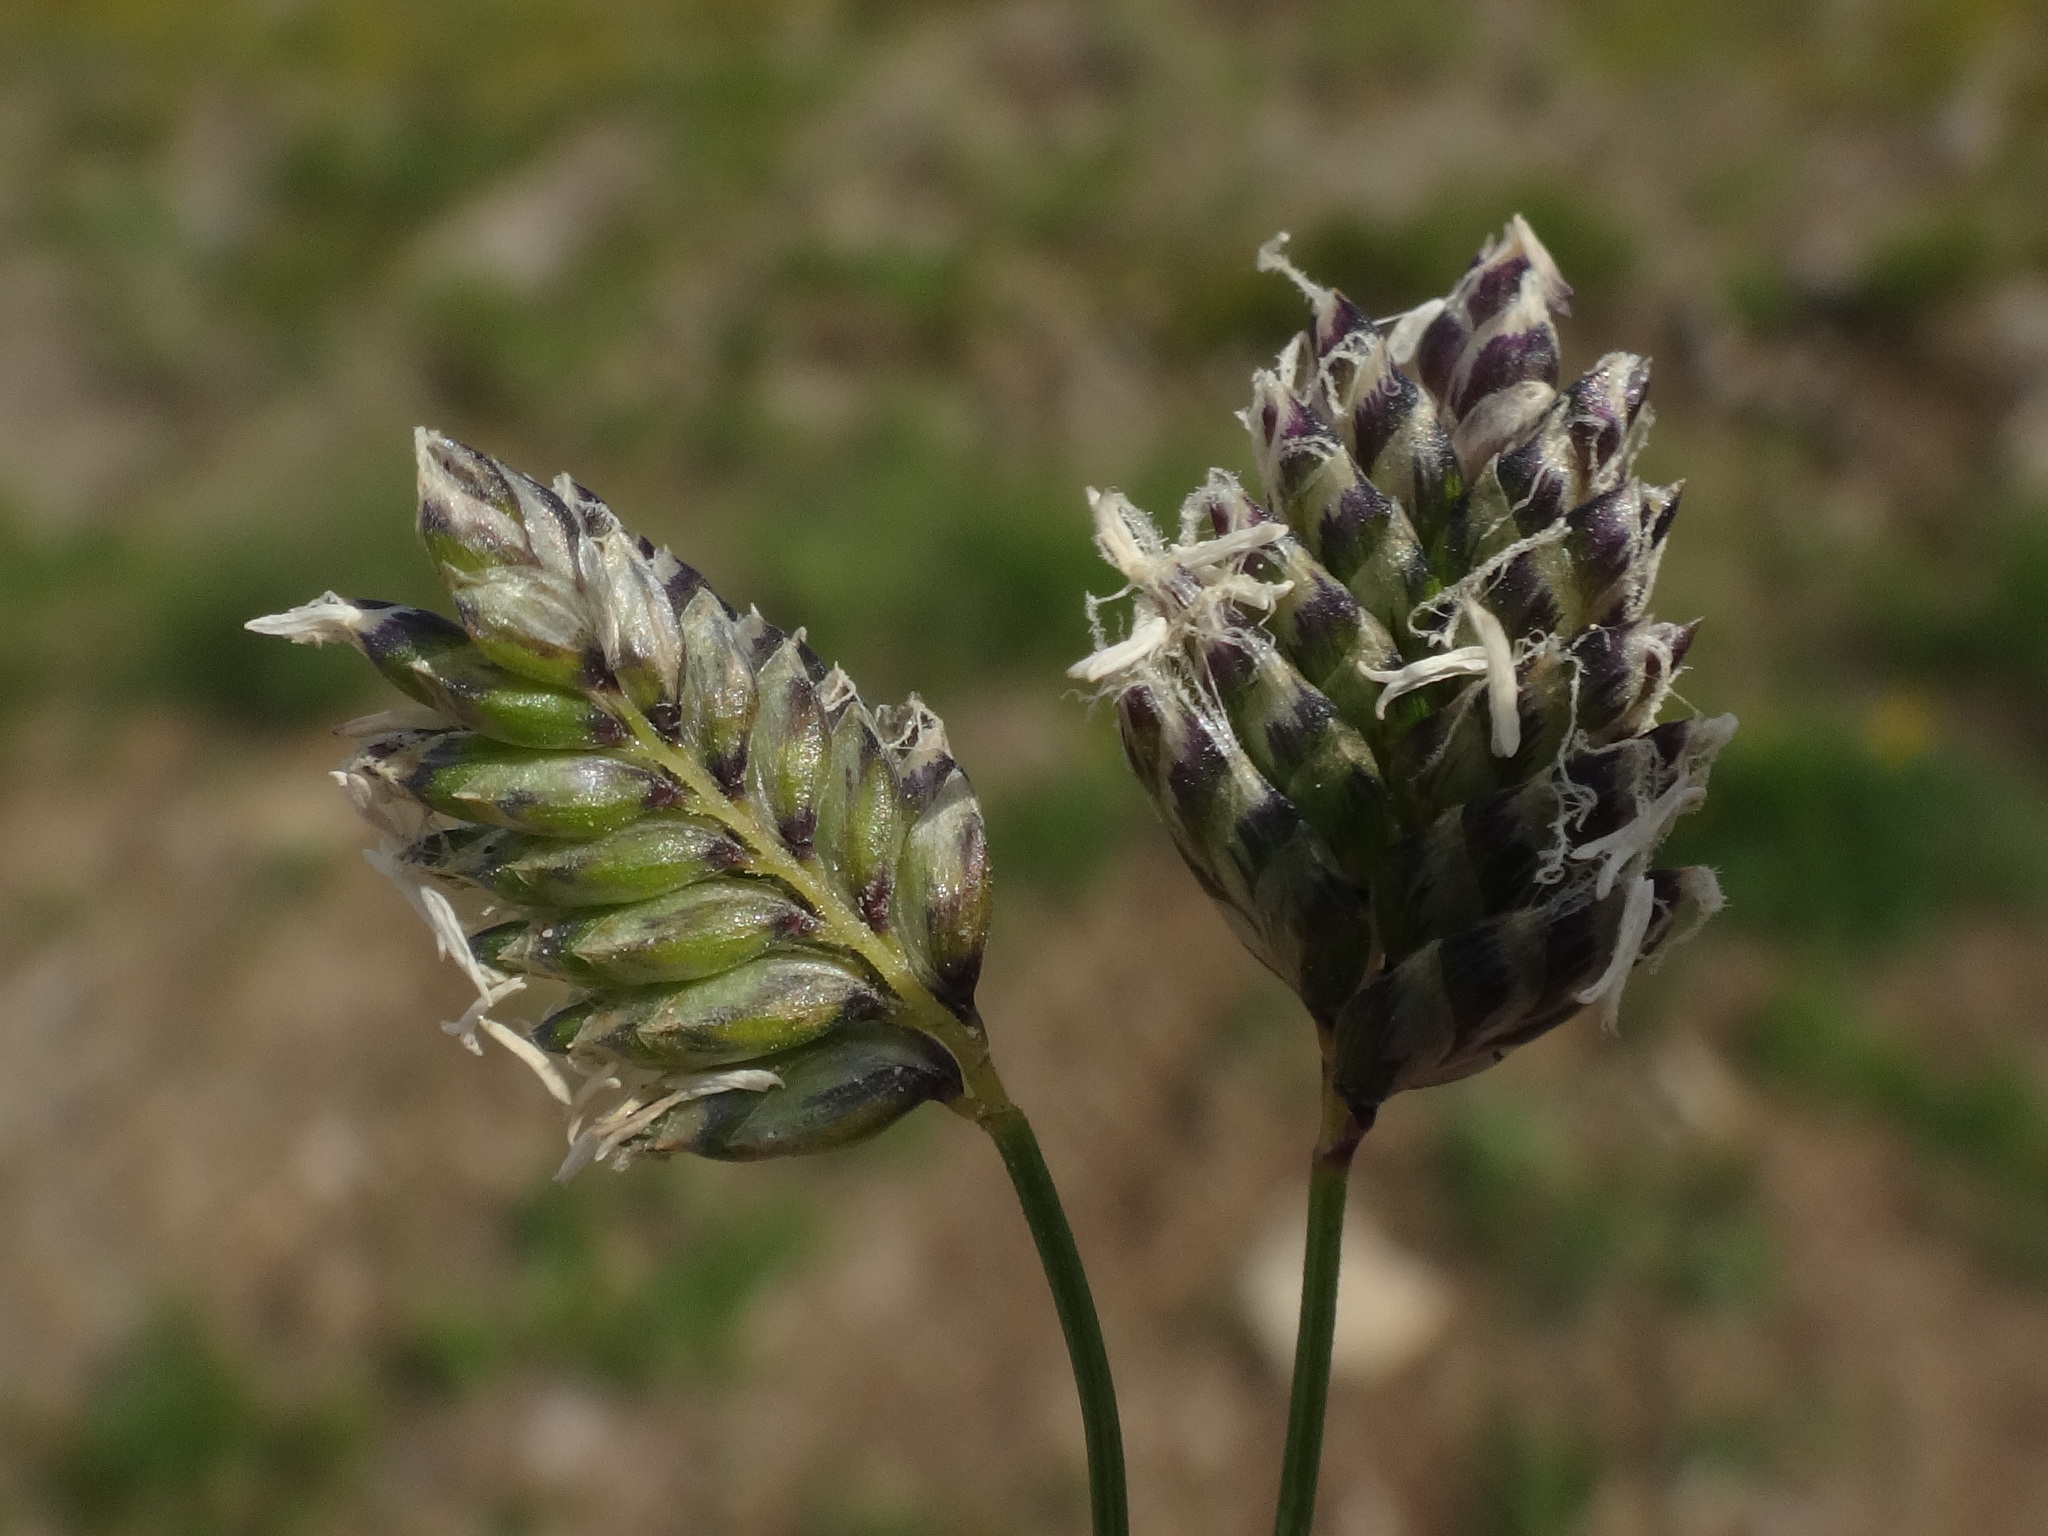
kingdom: Plantae
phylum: Tracheophyta
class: Liliopsida
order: Poales
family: Poaceae
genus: Oreochloa
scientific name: Oreochloa disticha
